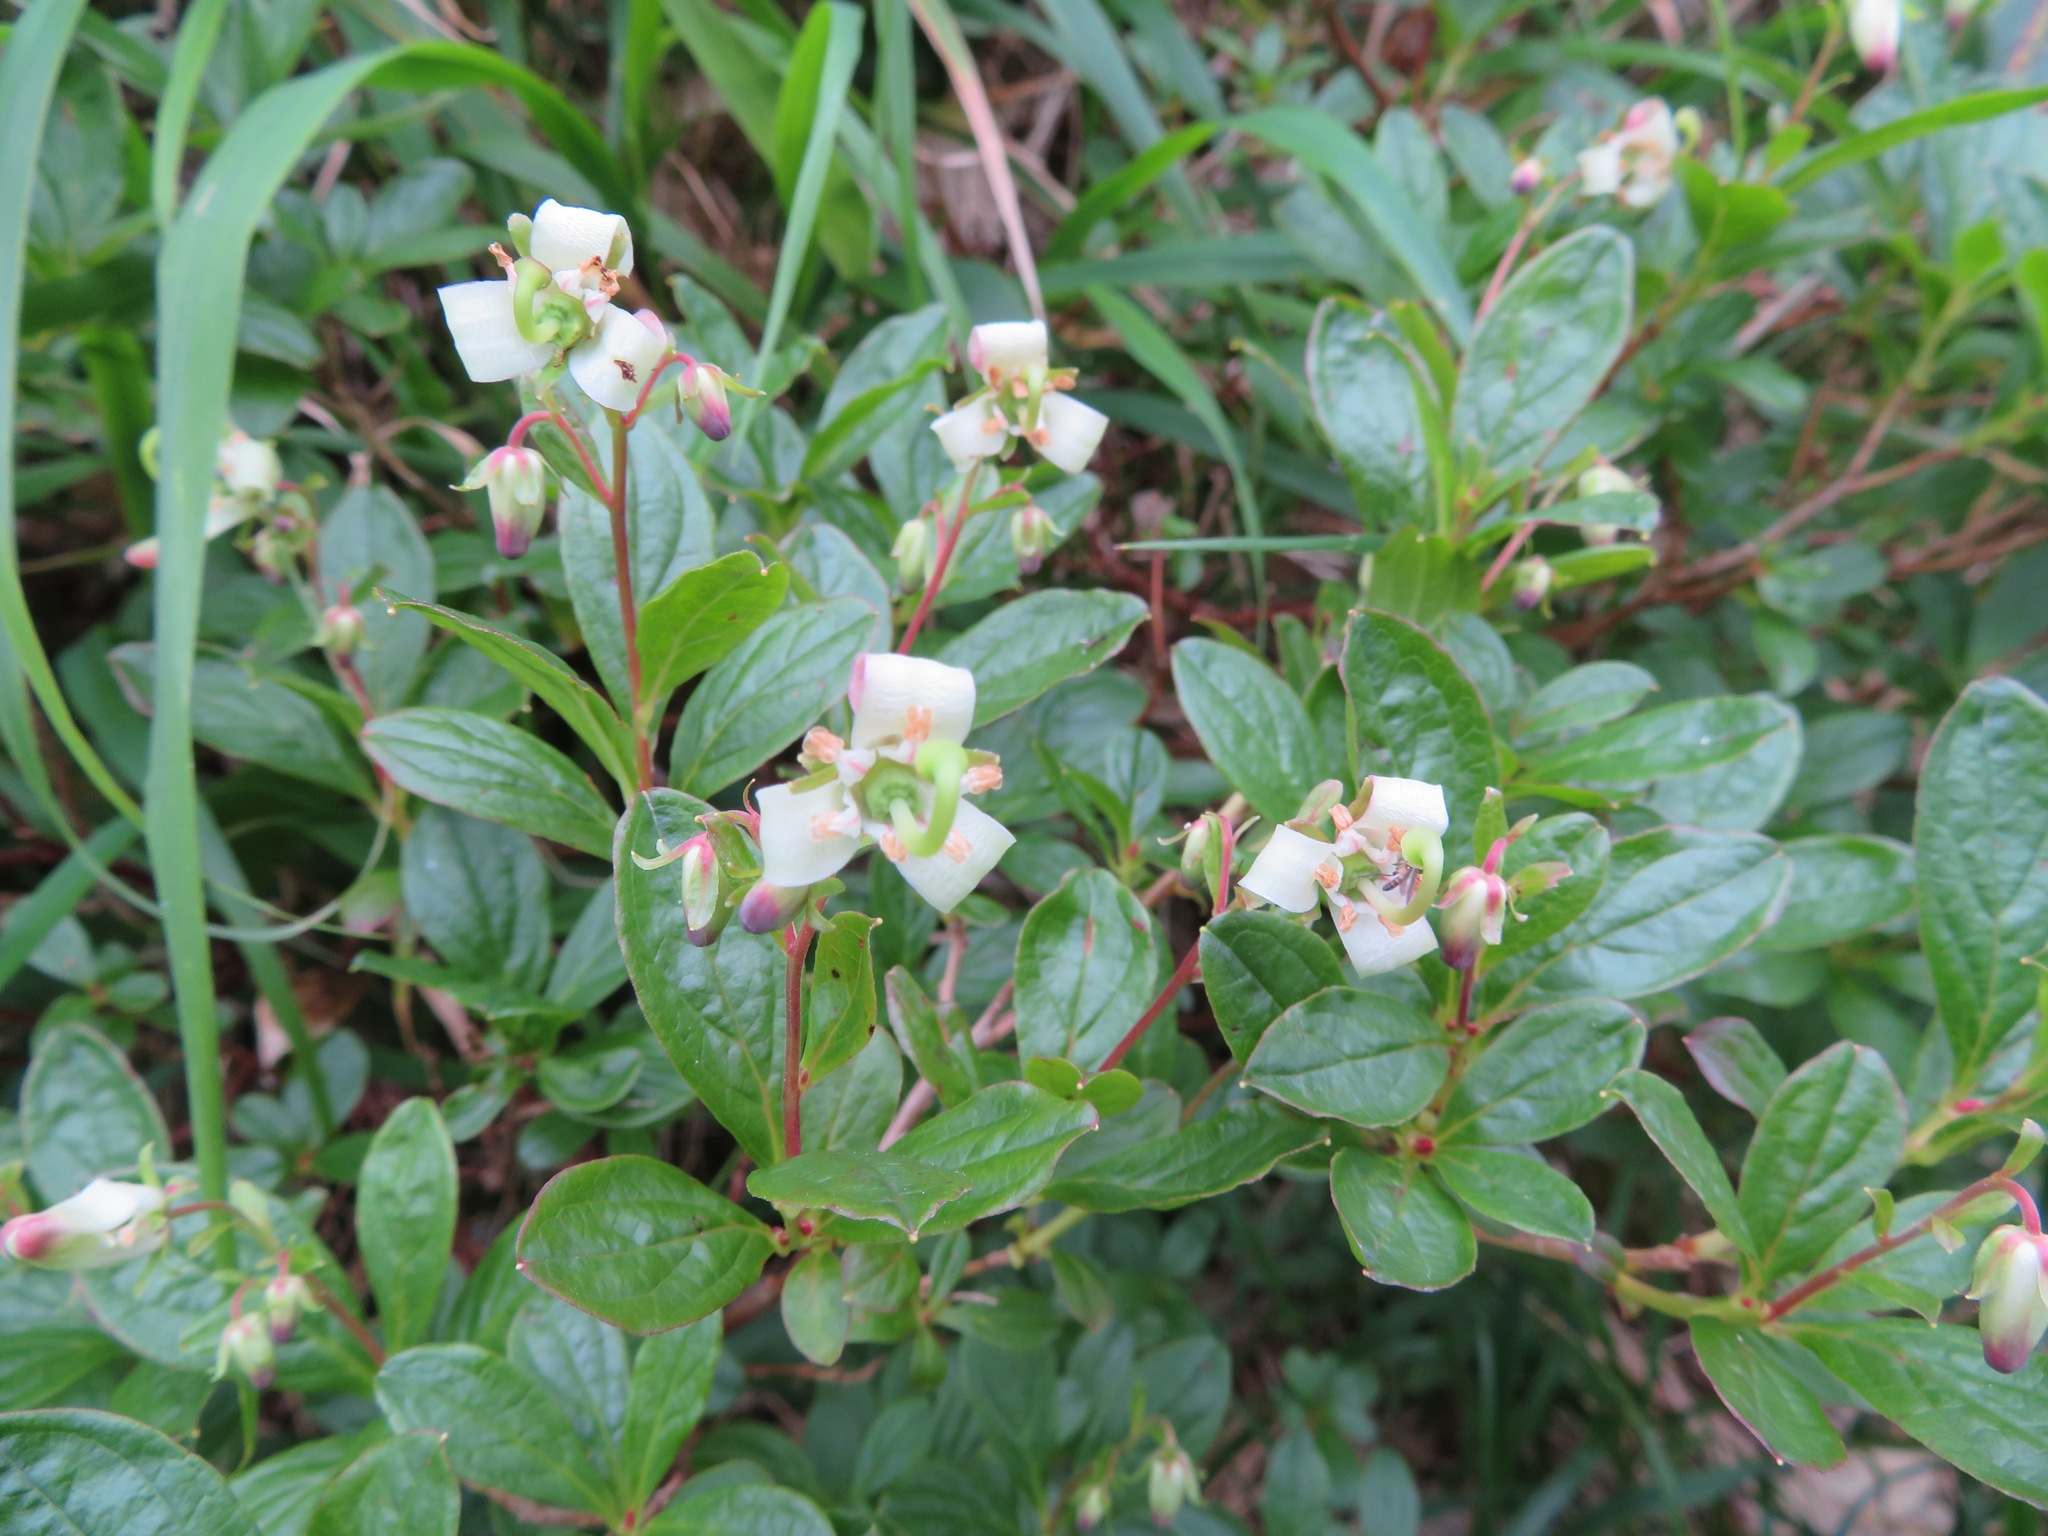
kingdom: Plantae
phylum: Tracheophyta
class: Magnoliopsida
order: Ericales
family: Ericaceae
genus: Elliottia
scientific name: Elliottia bracteata
